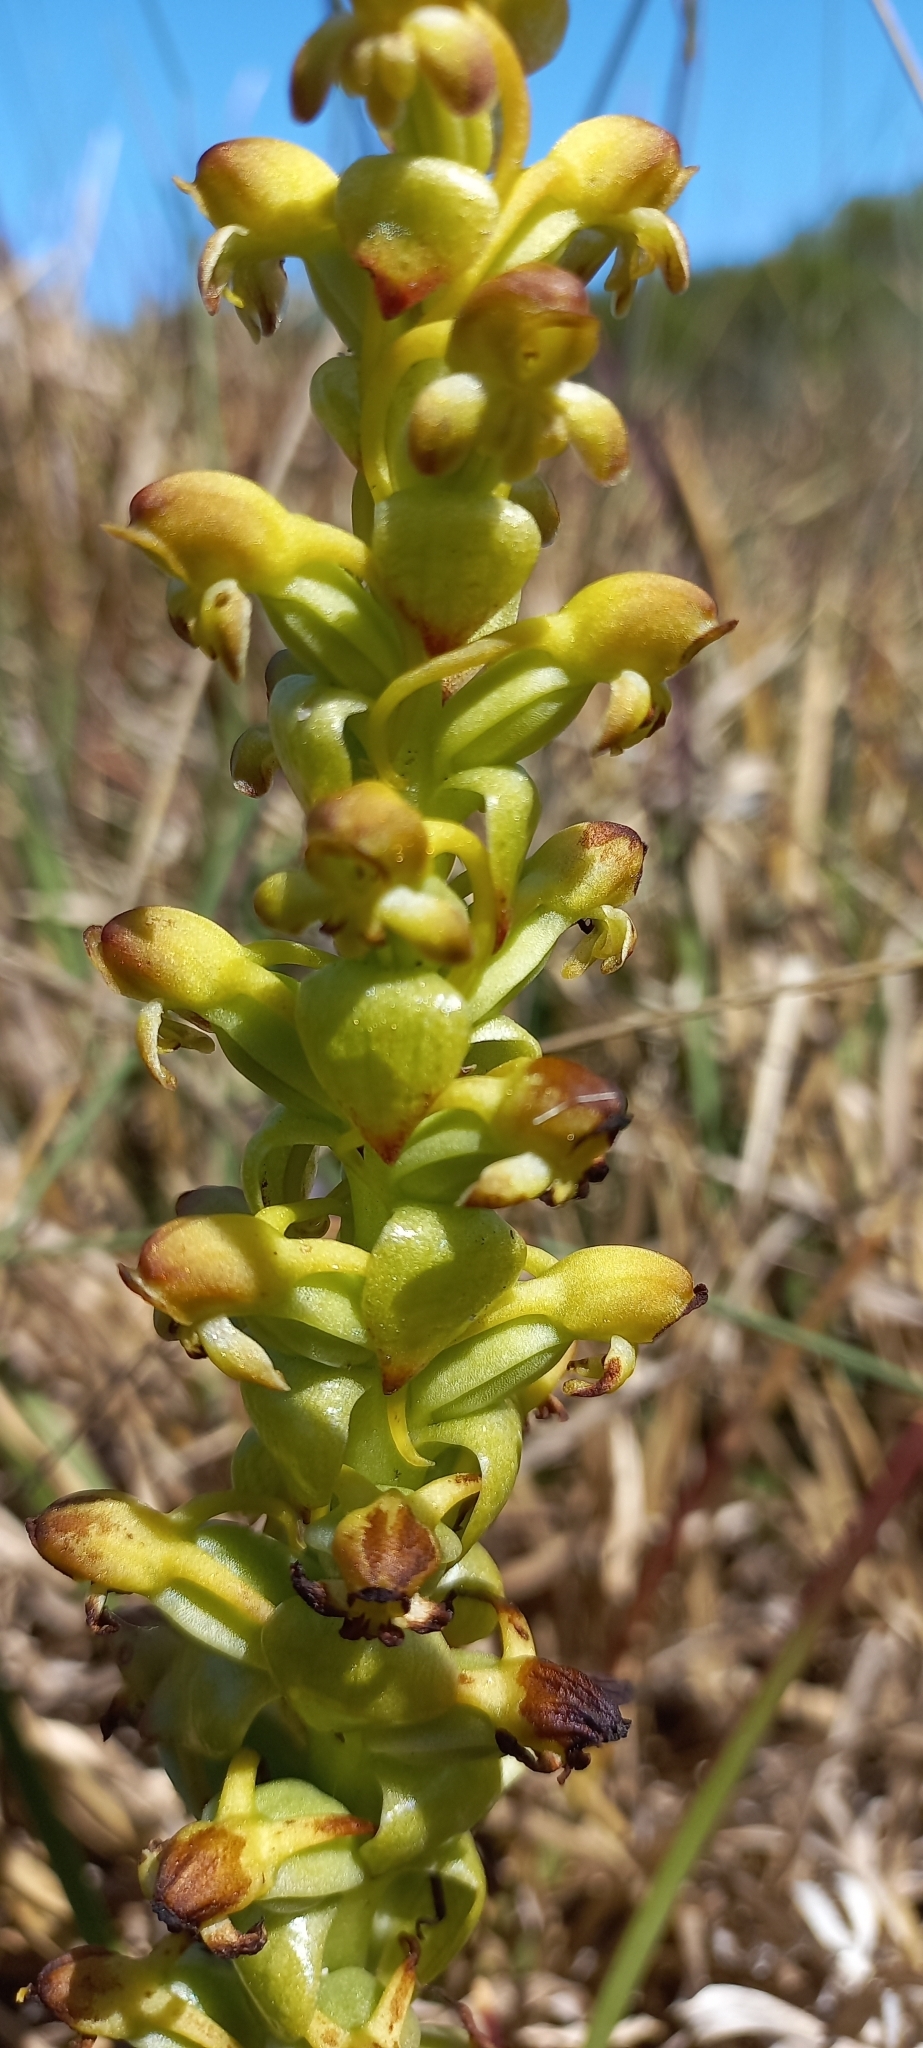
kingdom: Plantae
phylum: Tracheophyta
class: Liliopsida
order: Asparagales
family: Orchidaceae
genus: Satyrium
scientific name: Satyrium odorum
